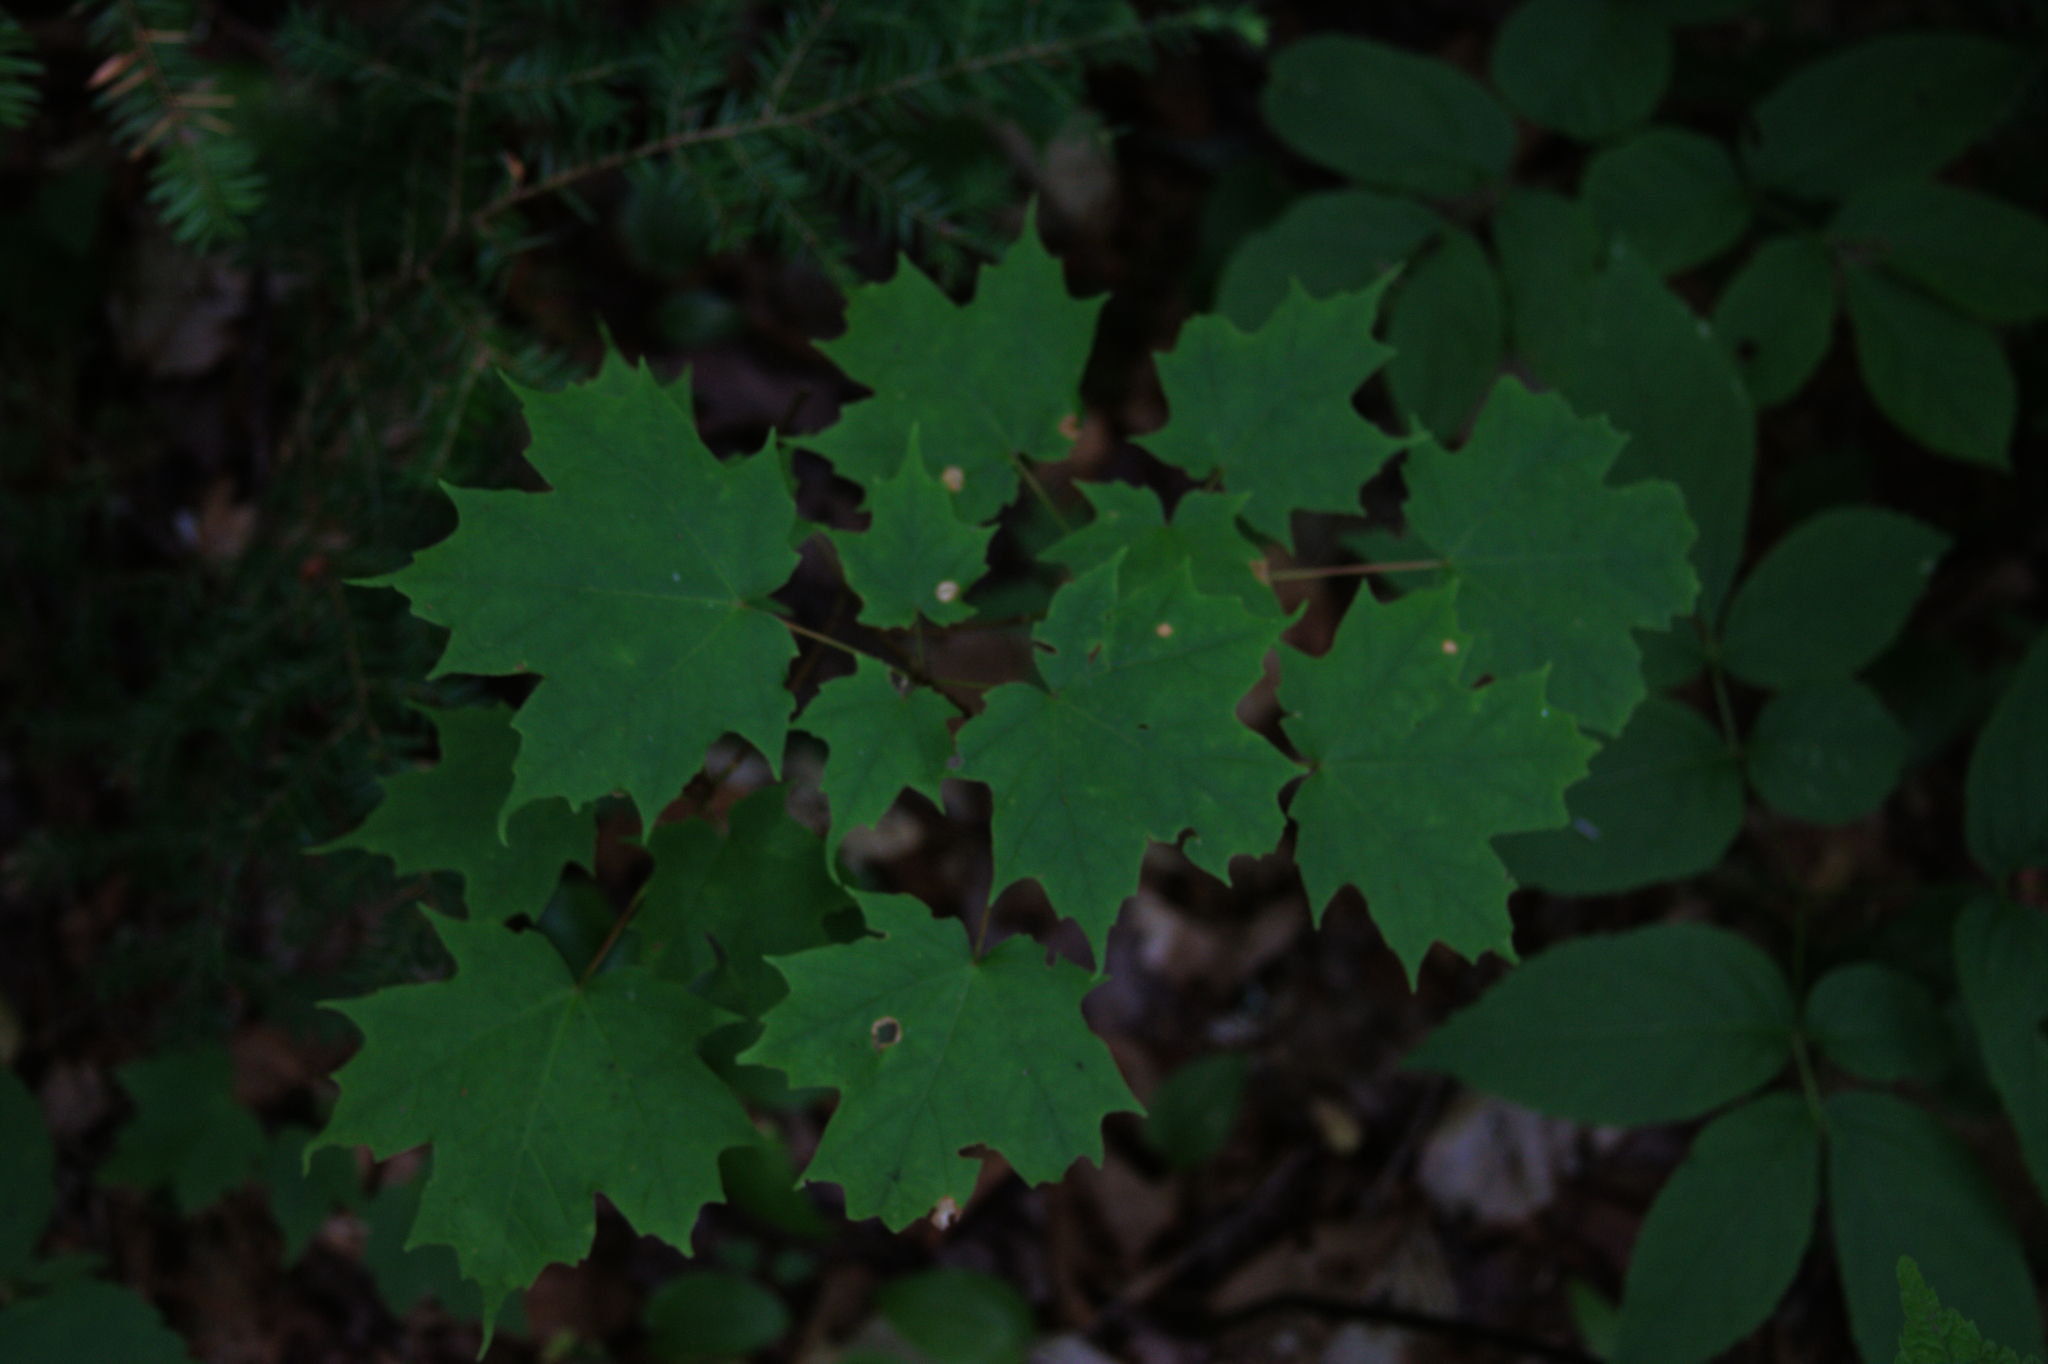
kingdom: Plantae
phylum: Tracheophyta
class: Magnoliopsida
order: Sapindales
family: Sapindaceae
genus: Acer
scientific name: Acer saccharum
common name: Sugar maple
